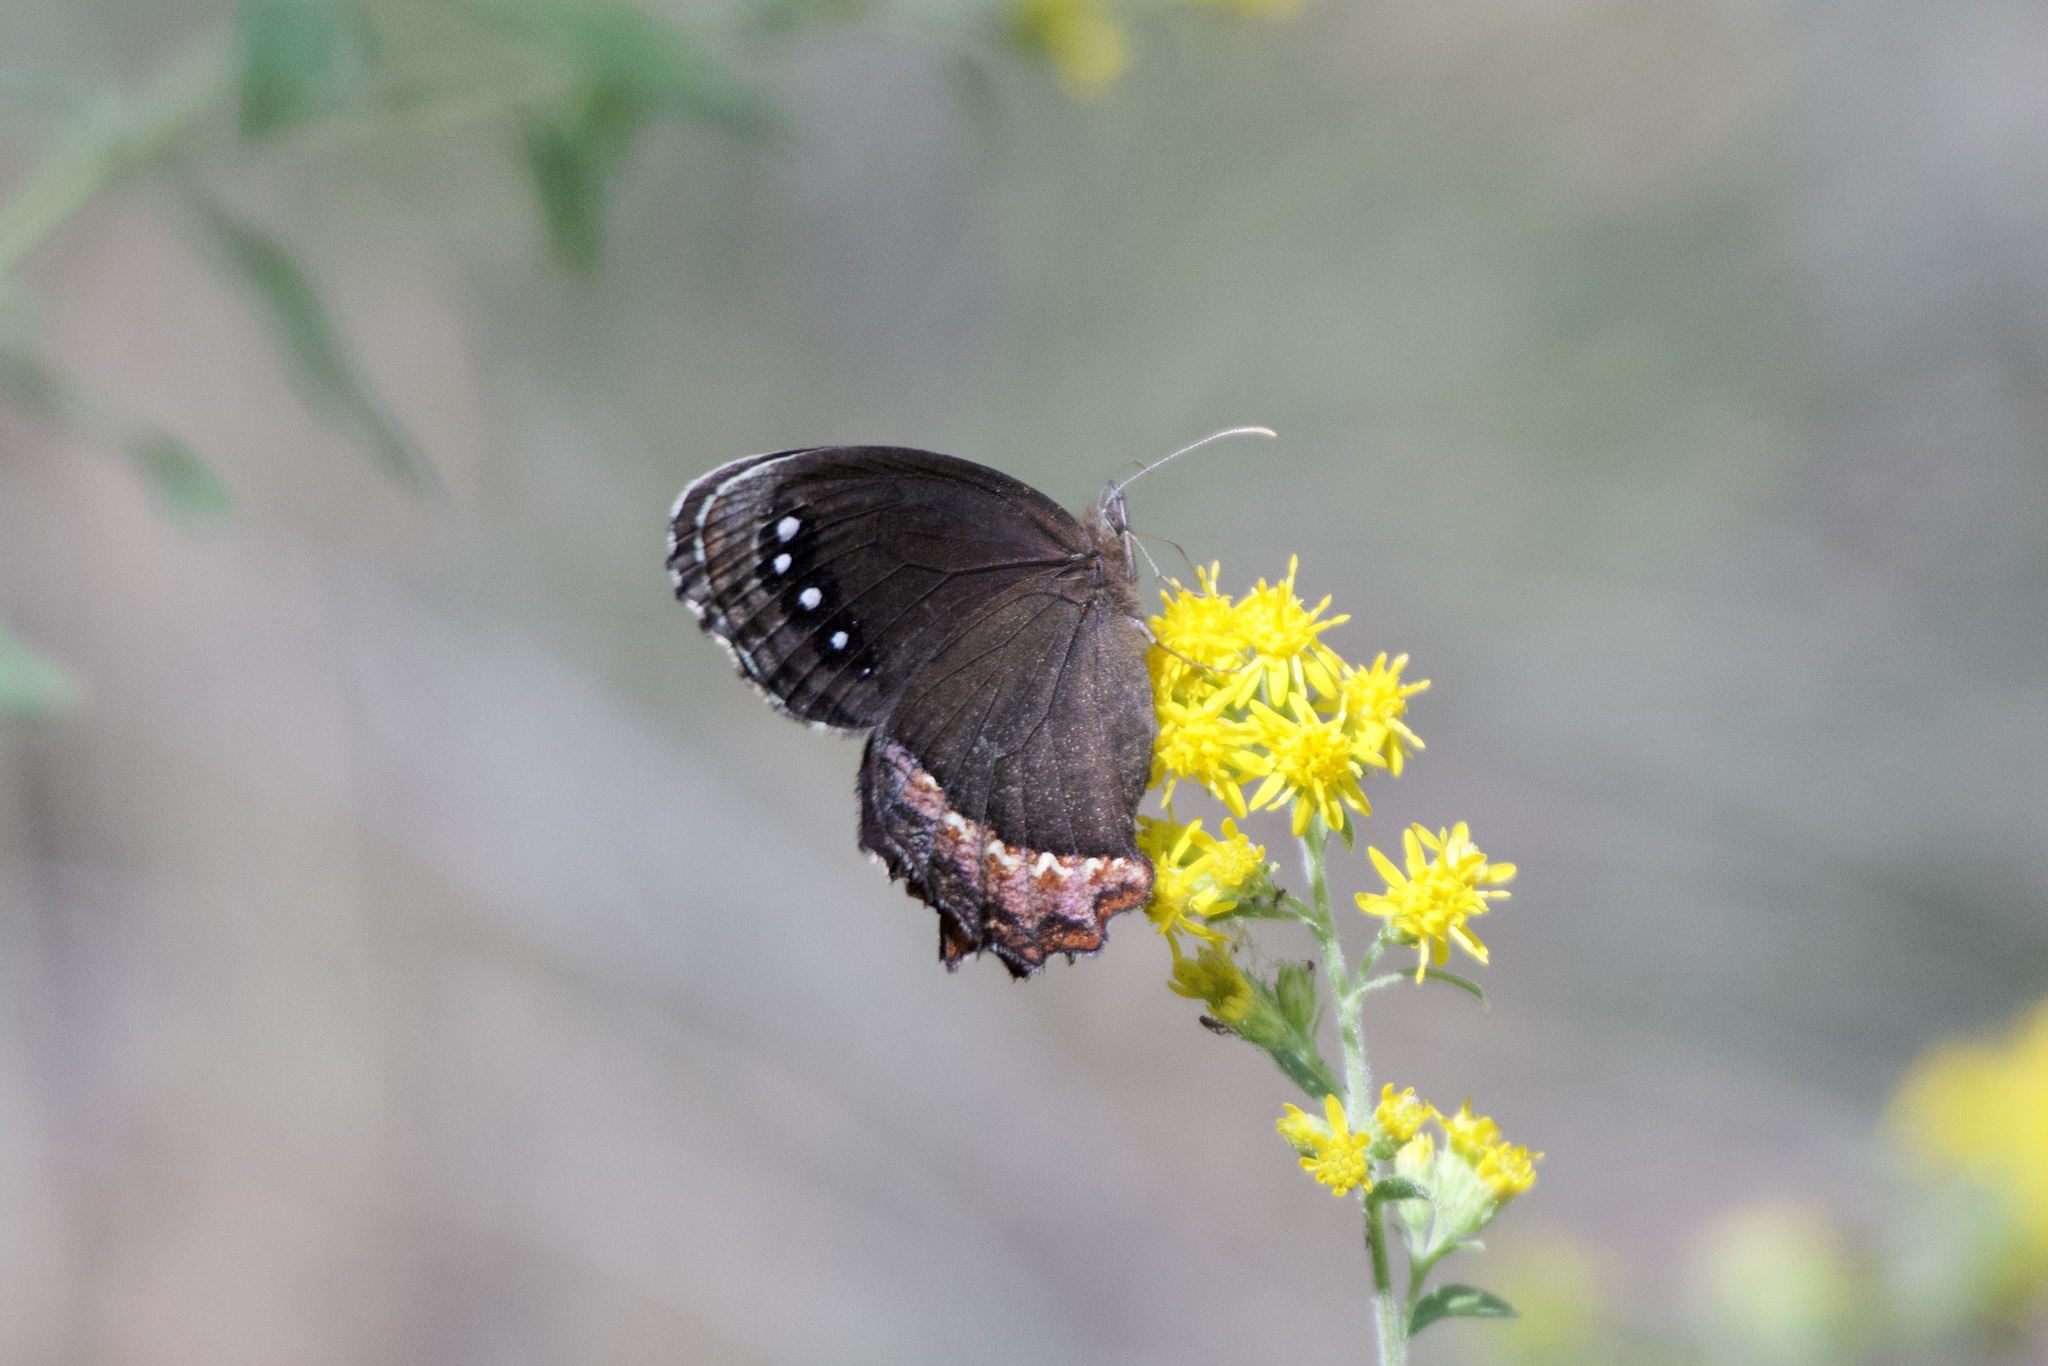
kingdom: Animalia
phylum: Arthropoda
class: Insecta
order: Lepidoptera
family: Nymphalidae
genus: Gyrocheilus
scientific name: Gyrocheilus patrobas
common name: Red-bordered satyr
